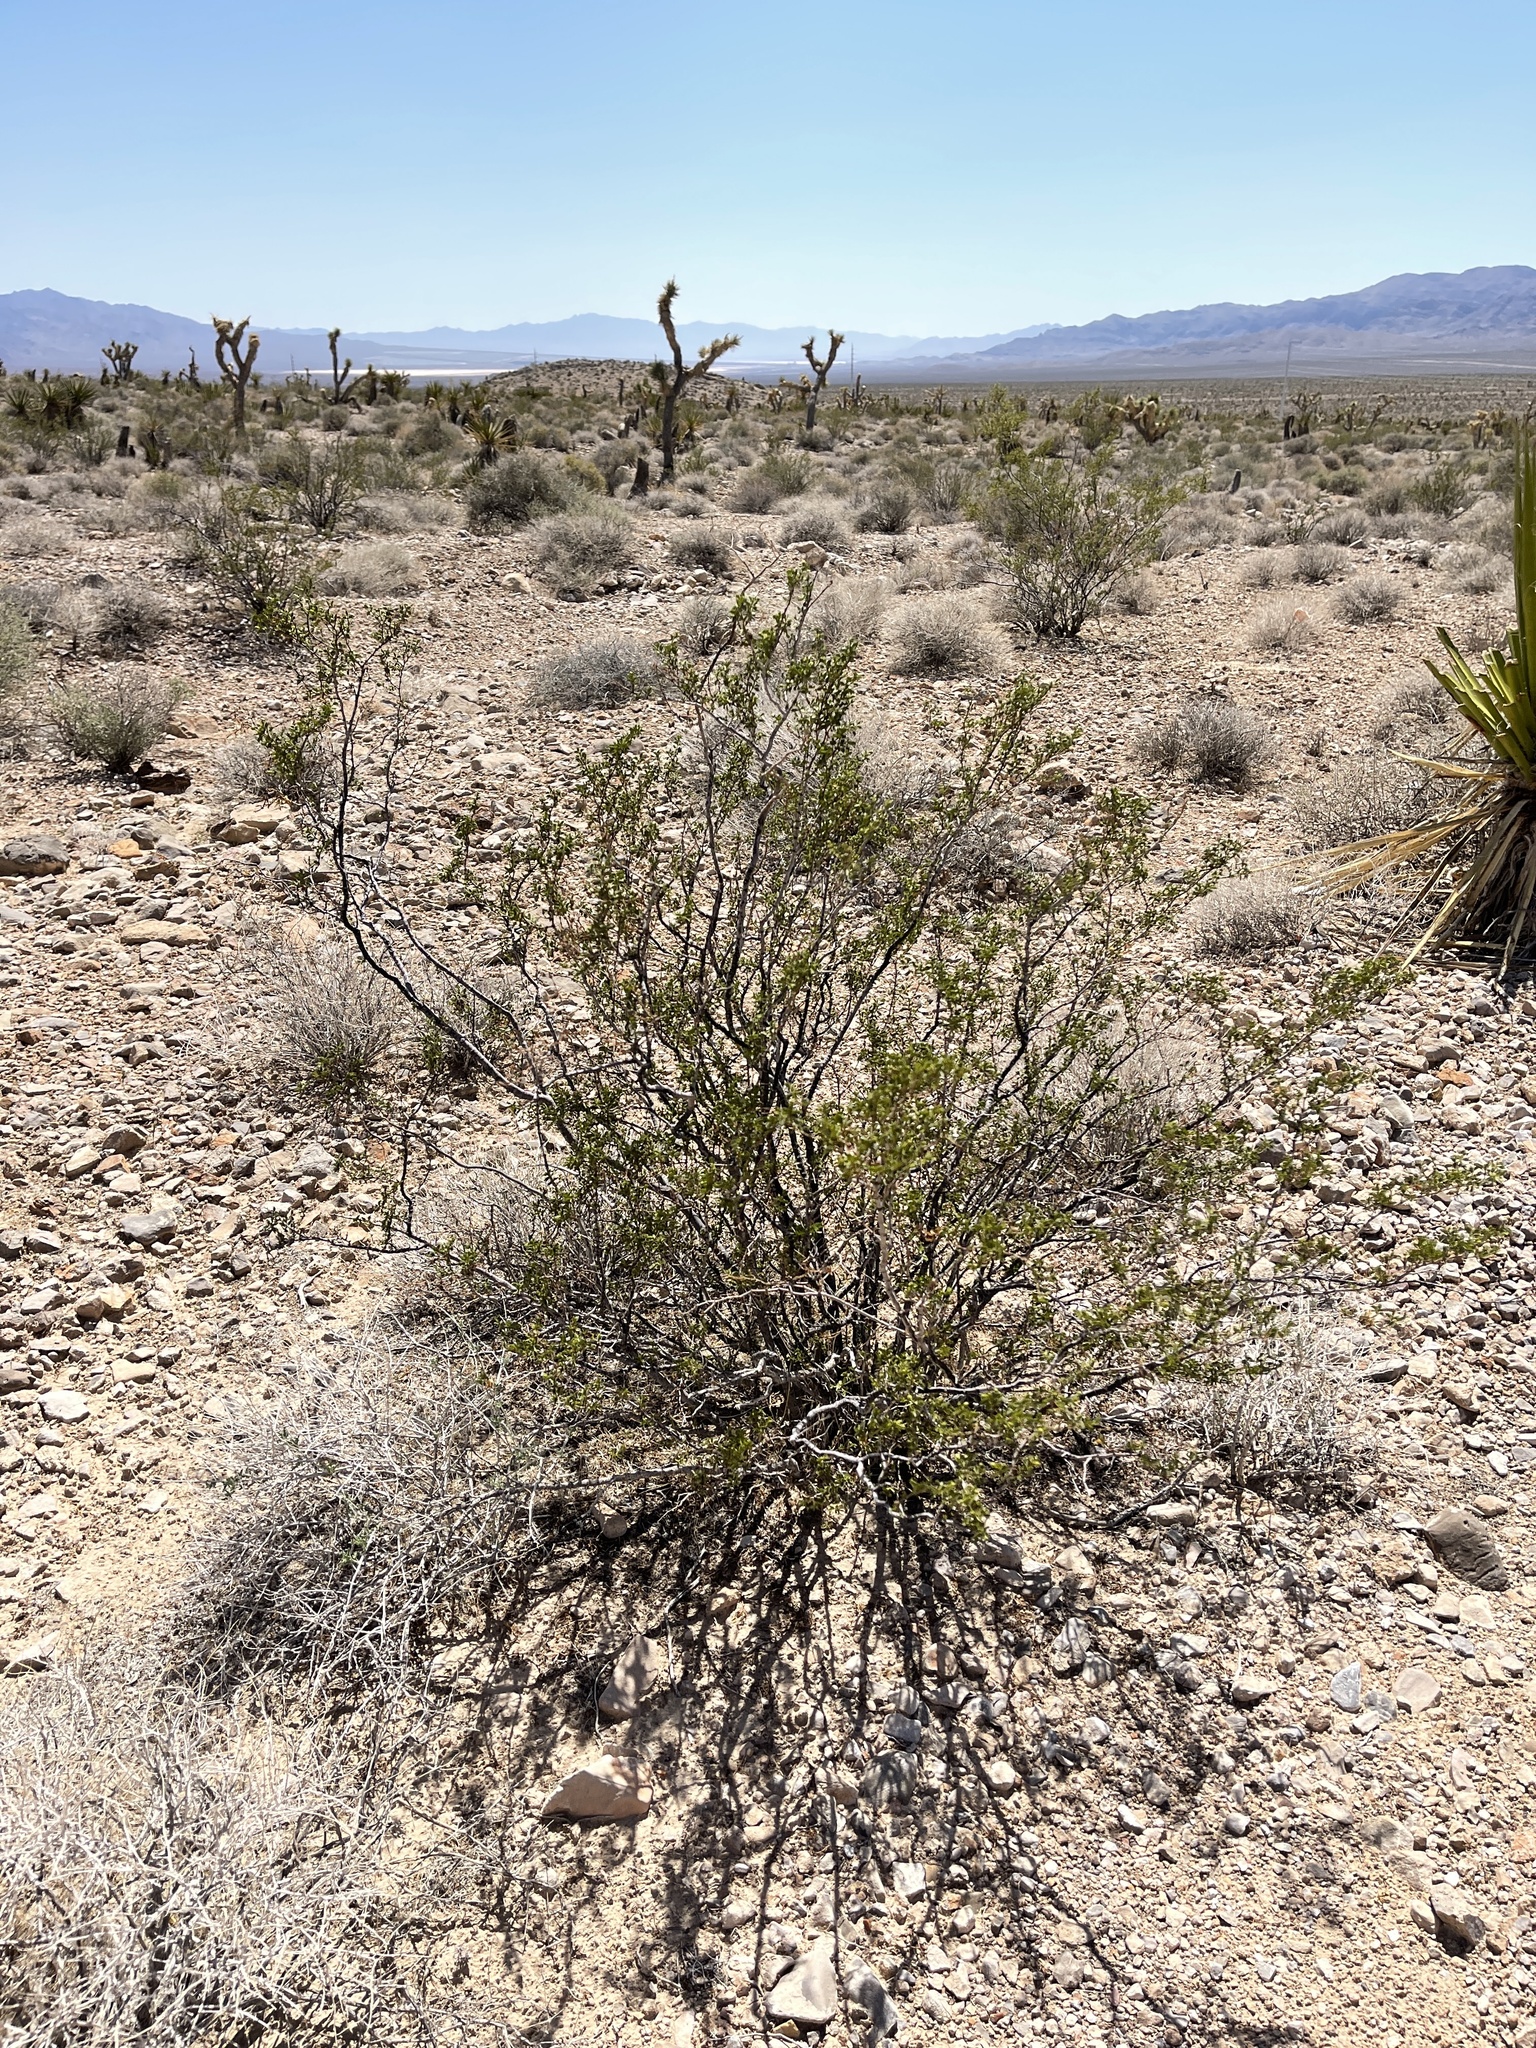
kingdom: Plantae
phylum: Tracheophyta
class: Magnoliopsida
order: Zygophyllales
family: Zygophyllaceae
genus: Larrea
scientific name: Larrea tridentata
